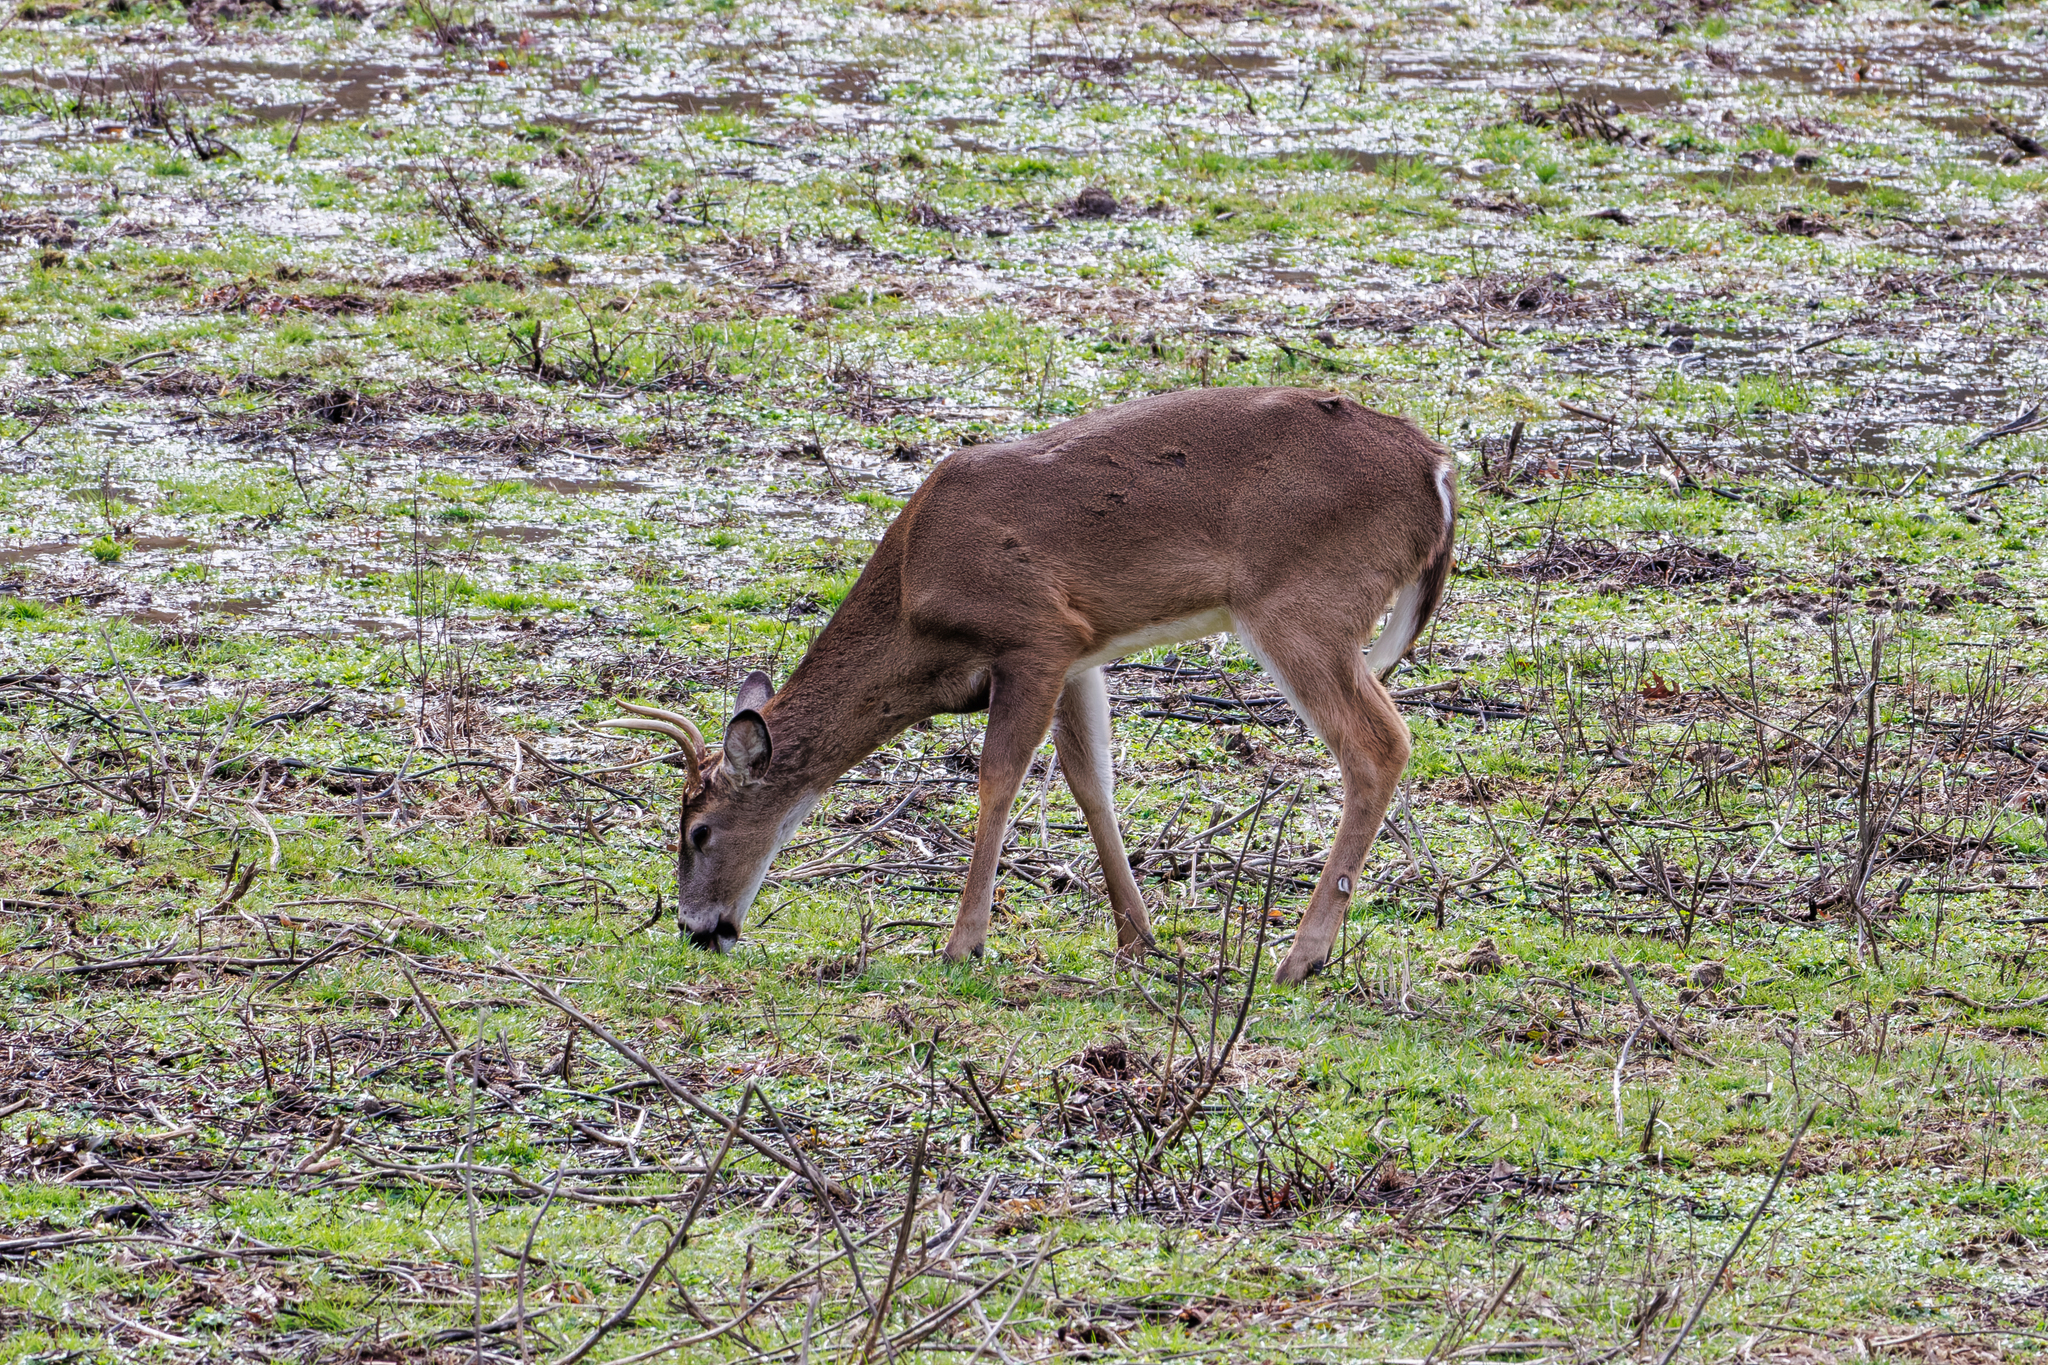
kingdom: Animalia
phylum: Chordata
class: Mammalia
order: Artiodactyla
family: Cervidae
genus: Odocoileus
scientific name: Odocoileus virginianus
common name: White-tailed deer
